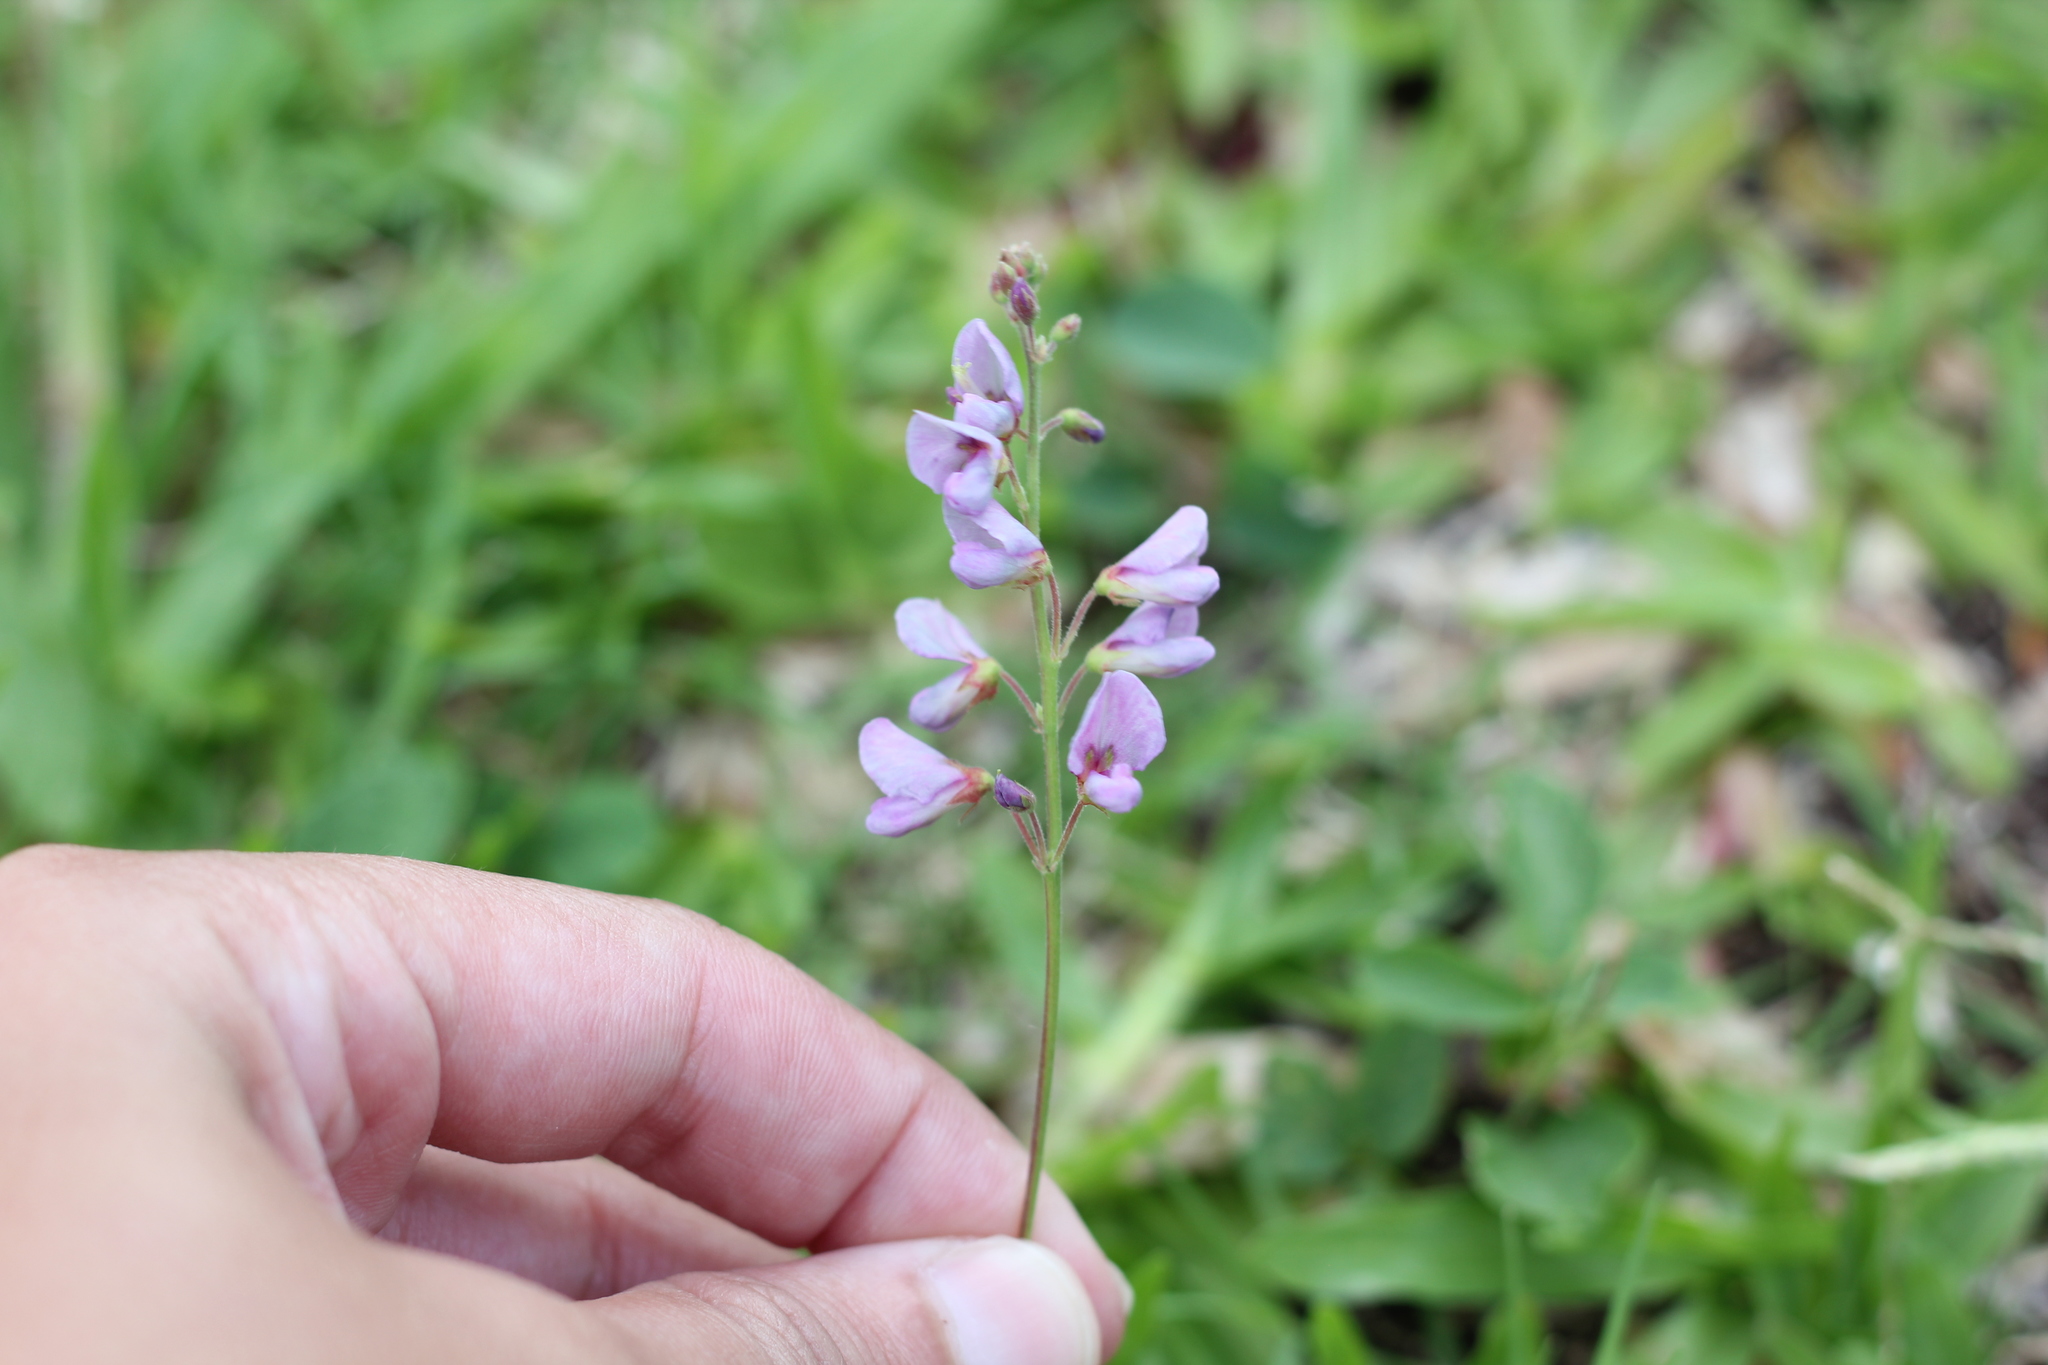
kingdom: Plantae
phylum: Tracheophyta
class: Magnoliopsida
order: Fabales
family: Fabaceae
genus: Desmodium
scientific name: Desmodium incanum
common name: Tickclover
